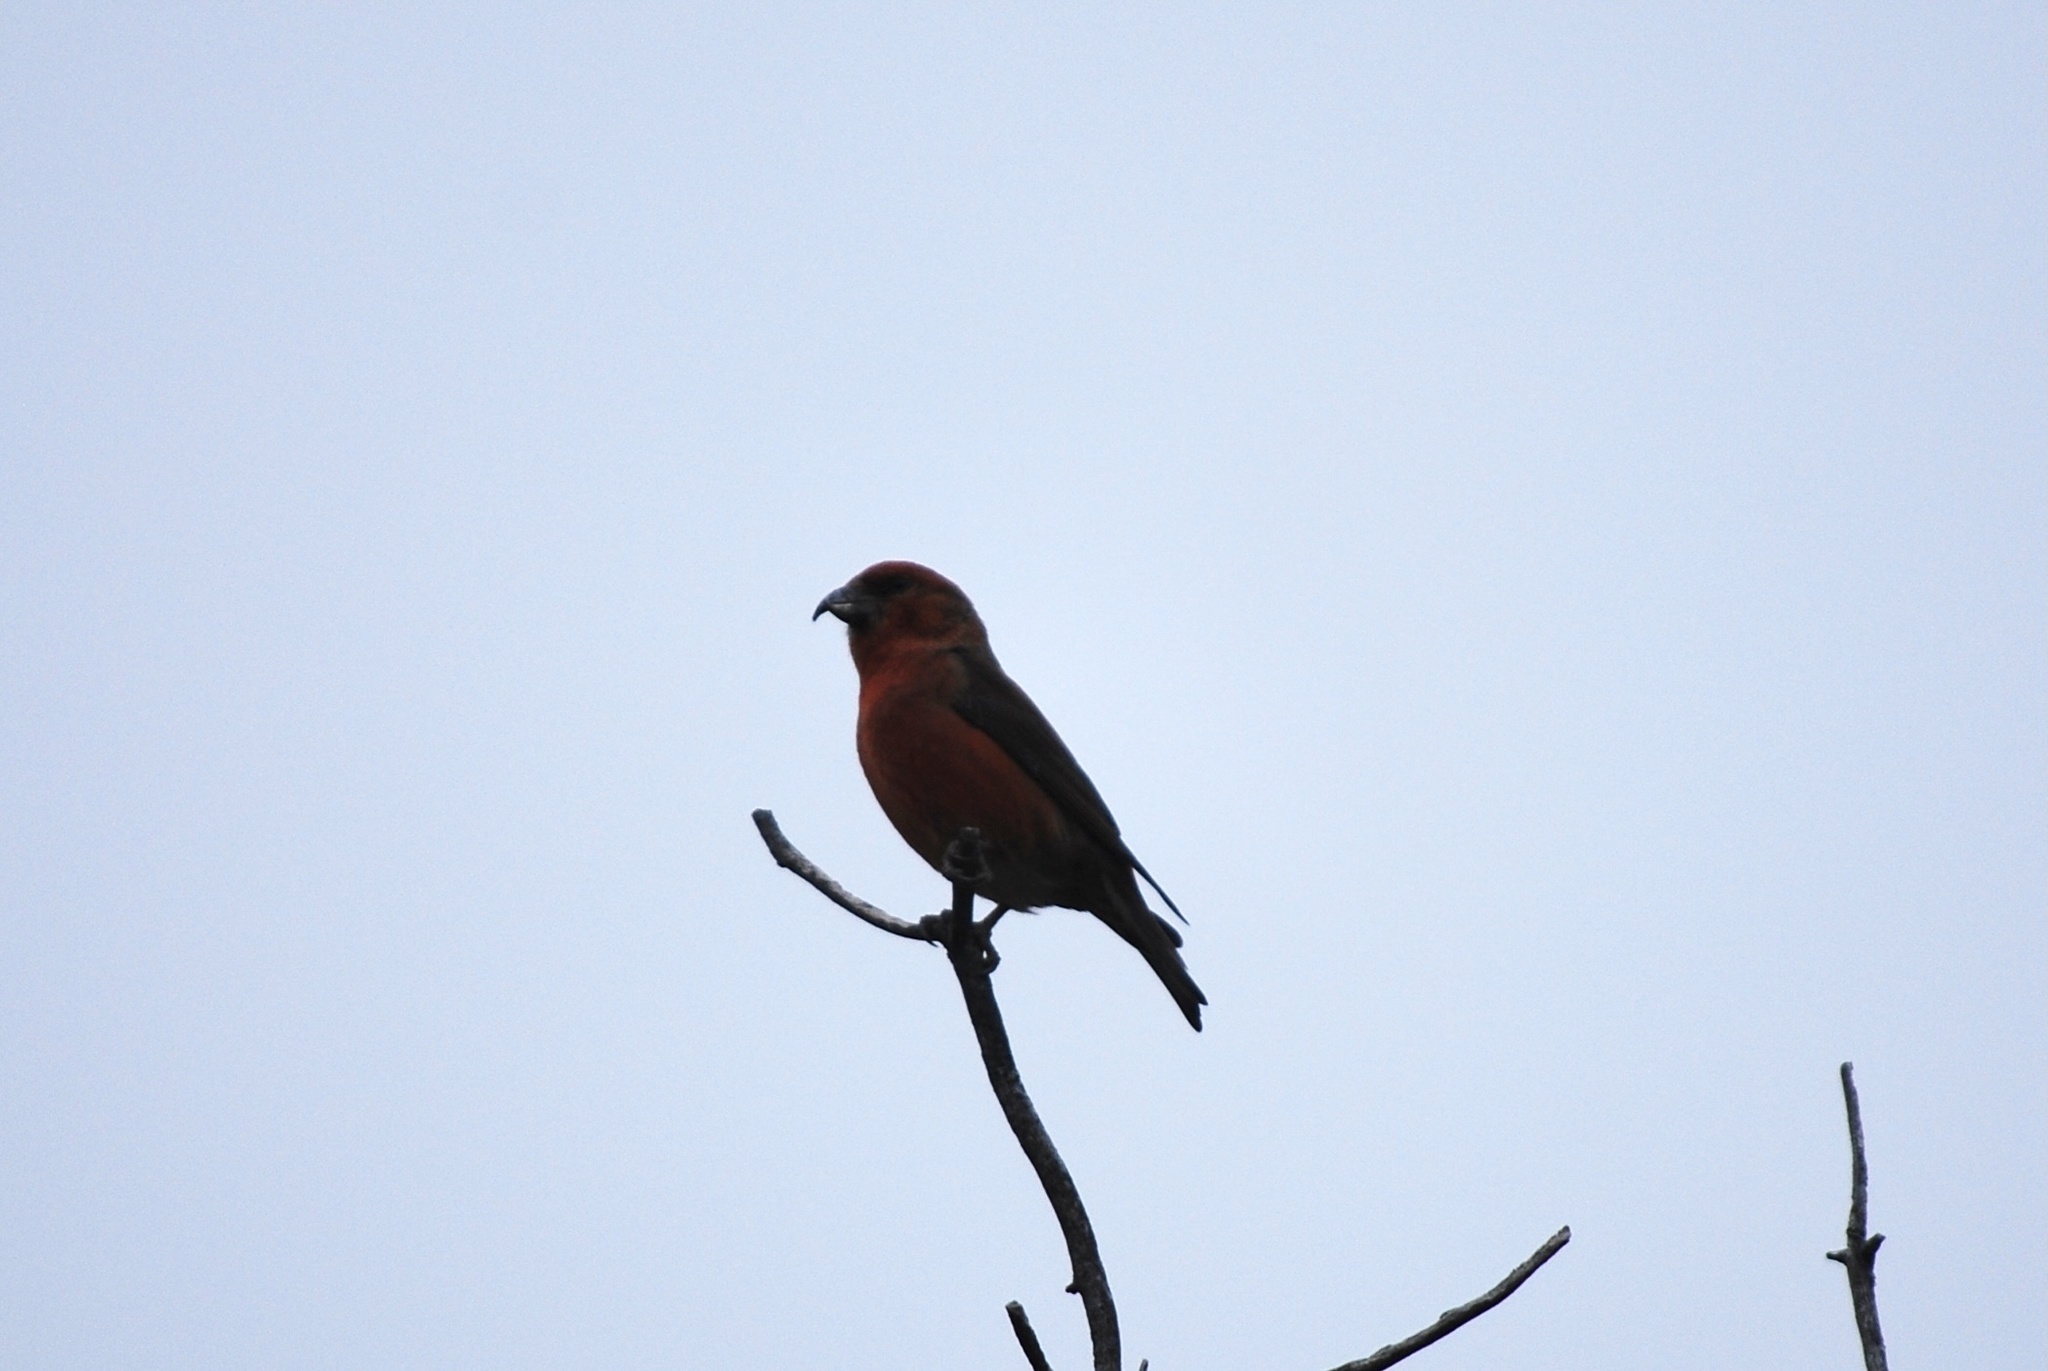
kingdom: Animalia
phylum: Chordata
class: Aves
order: Passeriformes
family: Fringillidae
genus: Loxia
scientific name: Loxia curvirostra
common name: Red crossbill
